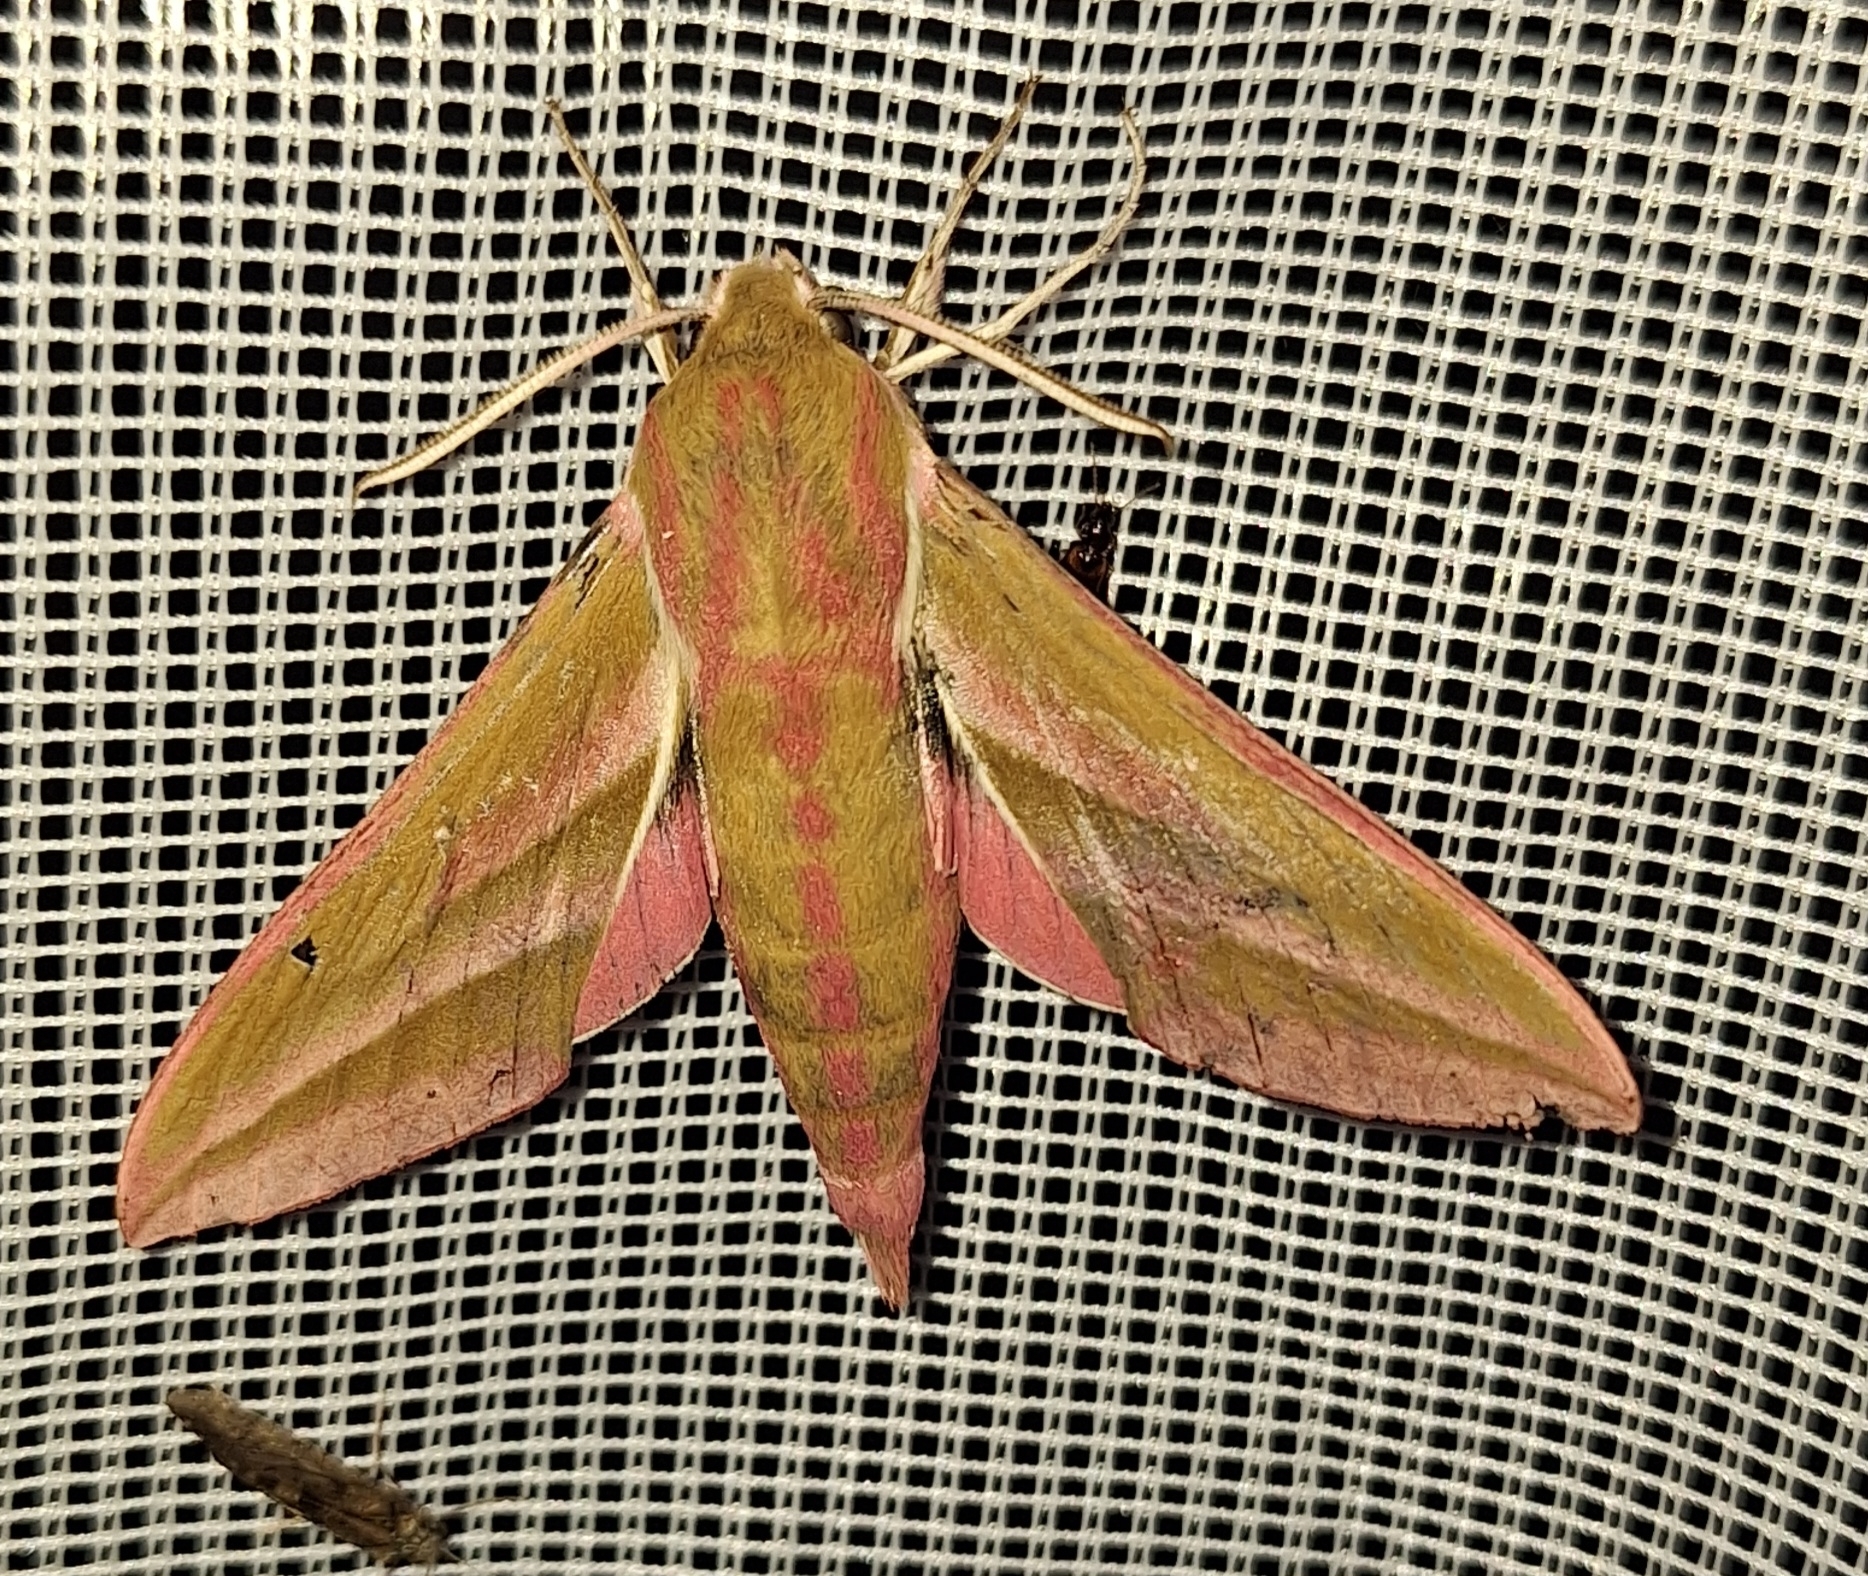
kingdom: Animalia
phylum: Arthropoda
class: Insecta
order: Lepidoptera
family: Sphingidae
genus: Deilephila
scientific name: Deilephila elpenor
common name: Elephant hawk-moth
